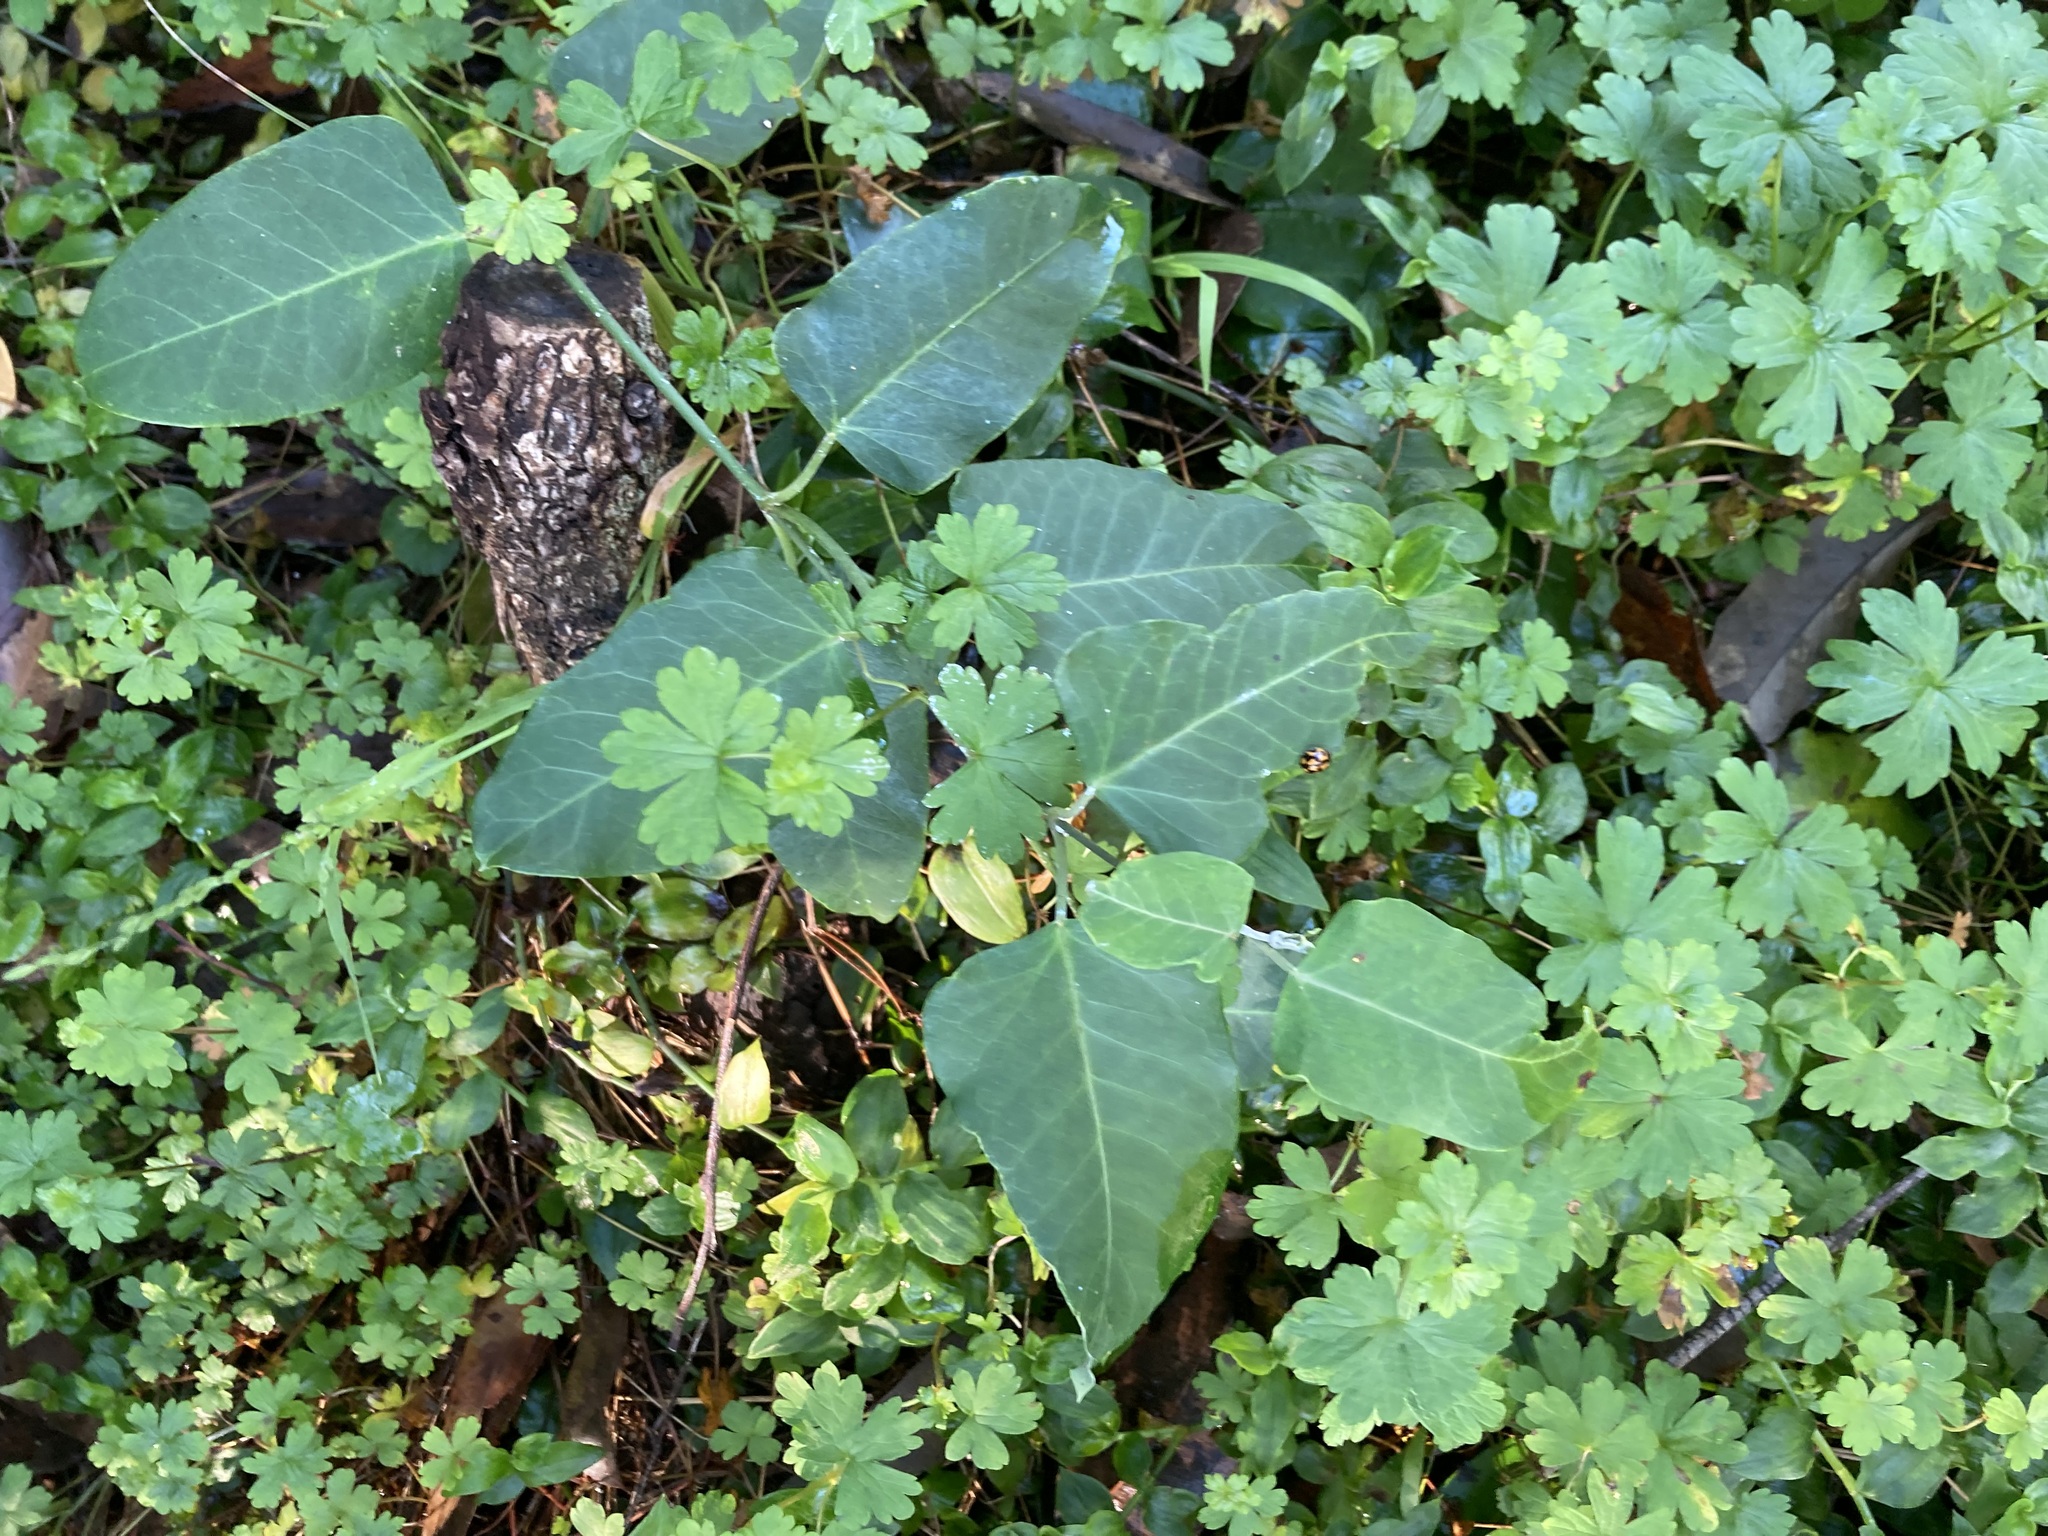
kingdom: Plantae
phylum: Tracheophyta
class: Magnoliopsida
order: Gentianales
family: Apocynaceae
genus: Araujia
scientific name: Araujia sericifera
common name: White bladderflower
